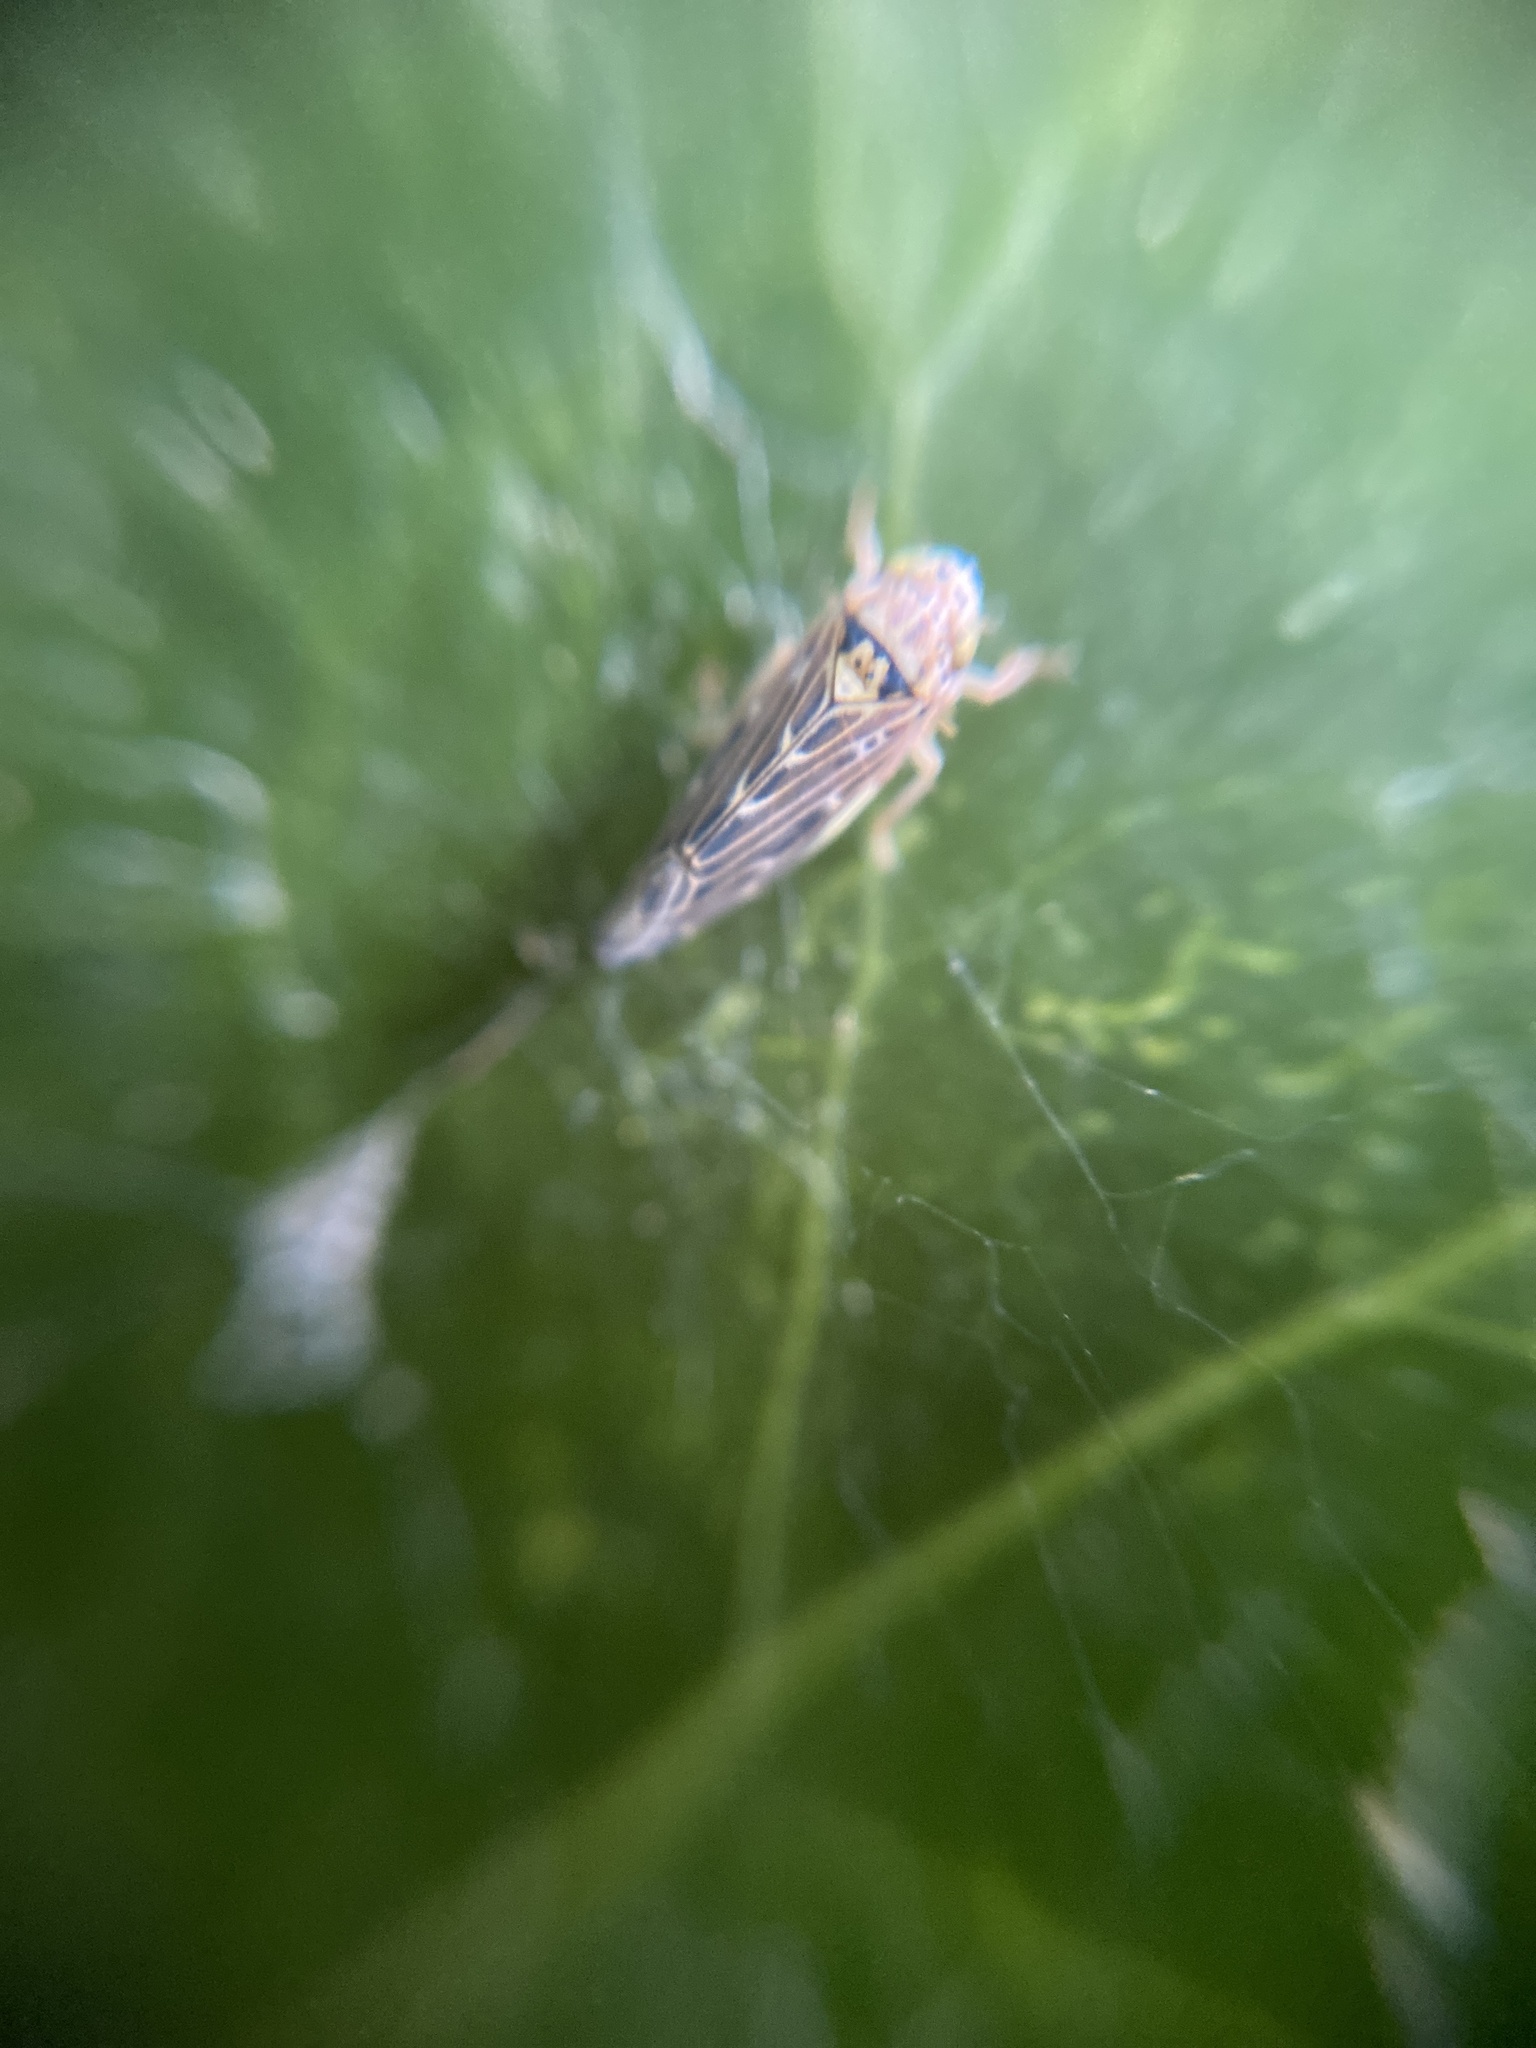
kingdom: Animalia
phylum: Arthropoda
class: Insecta
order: Hemiptera
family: Cicadellidae
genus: Lamprotettix
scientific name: Lamprotettix nitidulus
